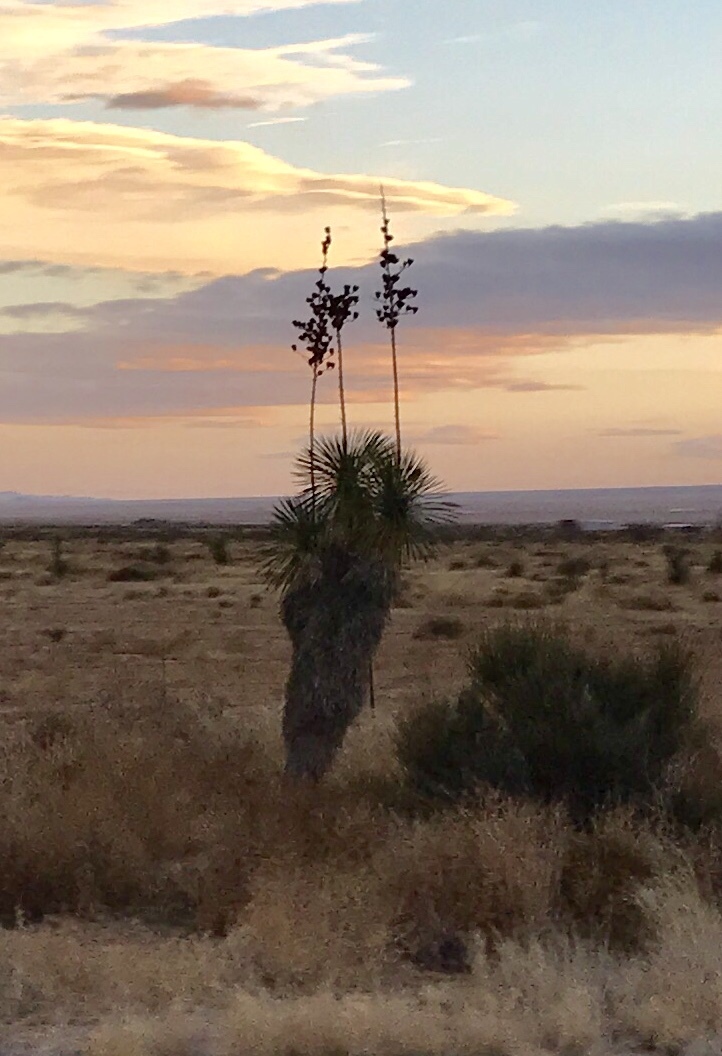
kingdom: Plantae
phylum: Tracheophyta
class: Liliopsida
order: Asparagales
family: Asparagaceae
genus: Yucca
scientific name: Yucca elata
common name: Palmella
